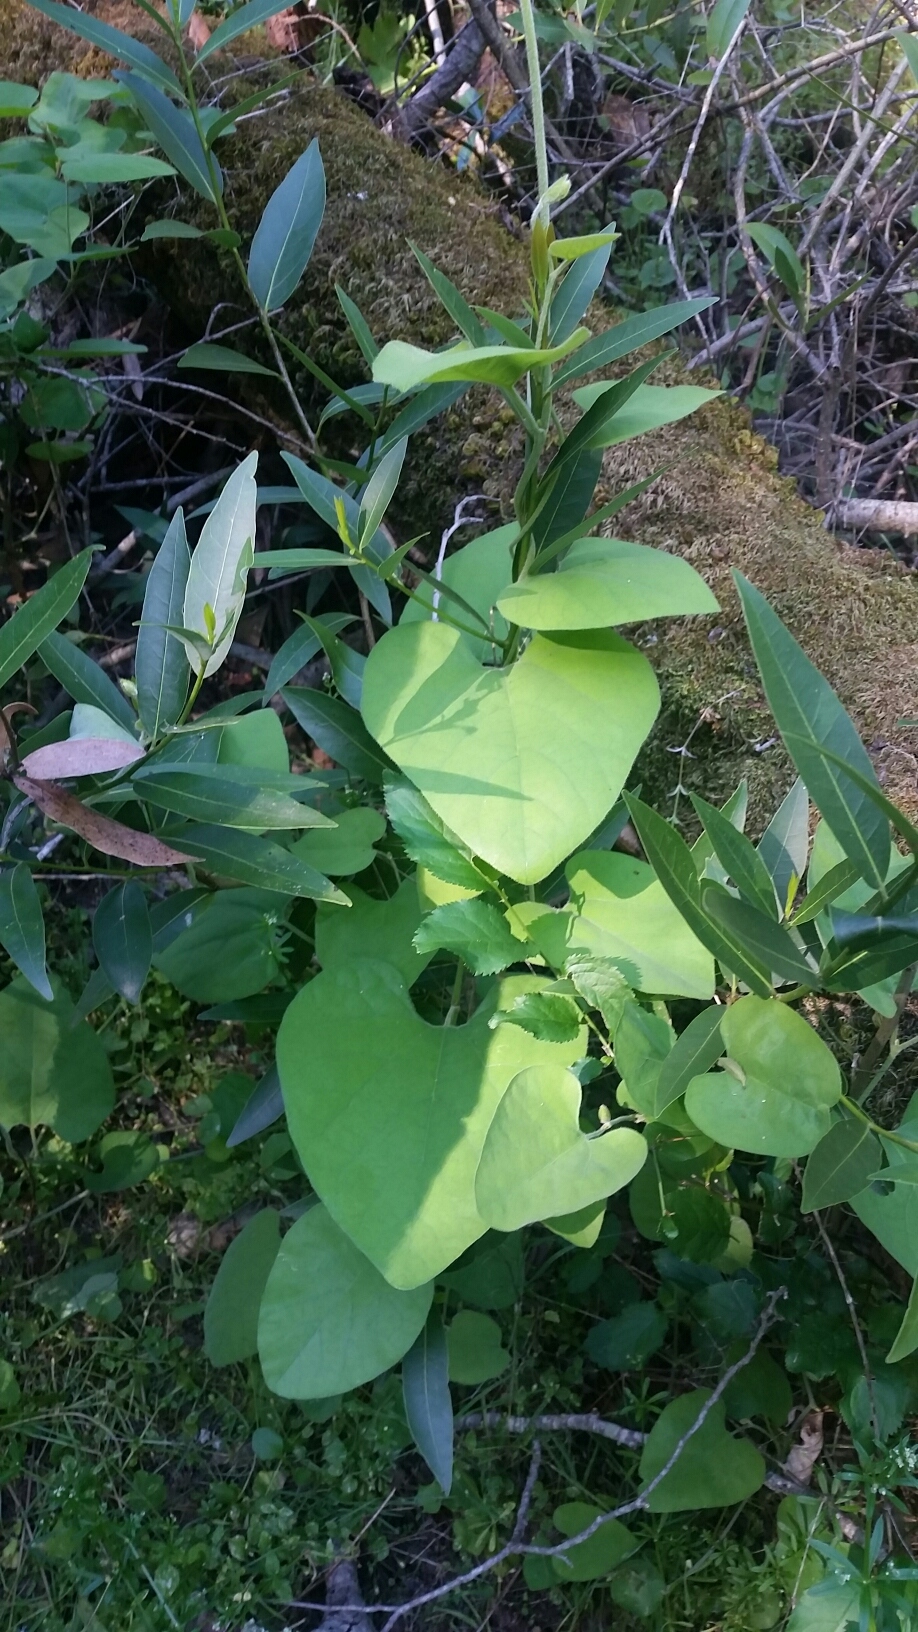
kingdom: Plantae
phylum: Tracheophyta
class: Magnoliopsida
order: Piperales
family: Aristolochiaceae
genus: Isotrema
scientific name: Isotrema californicum
